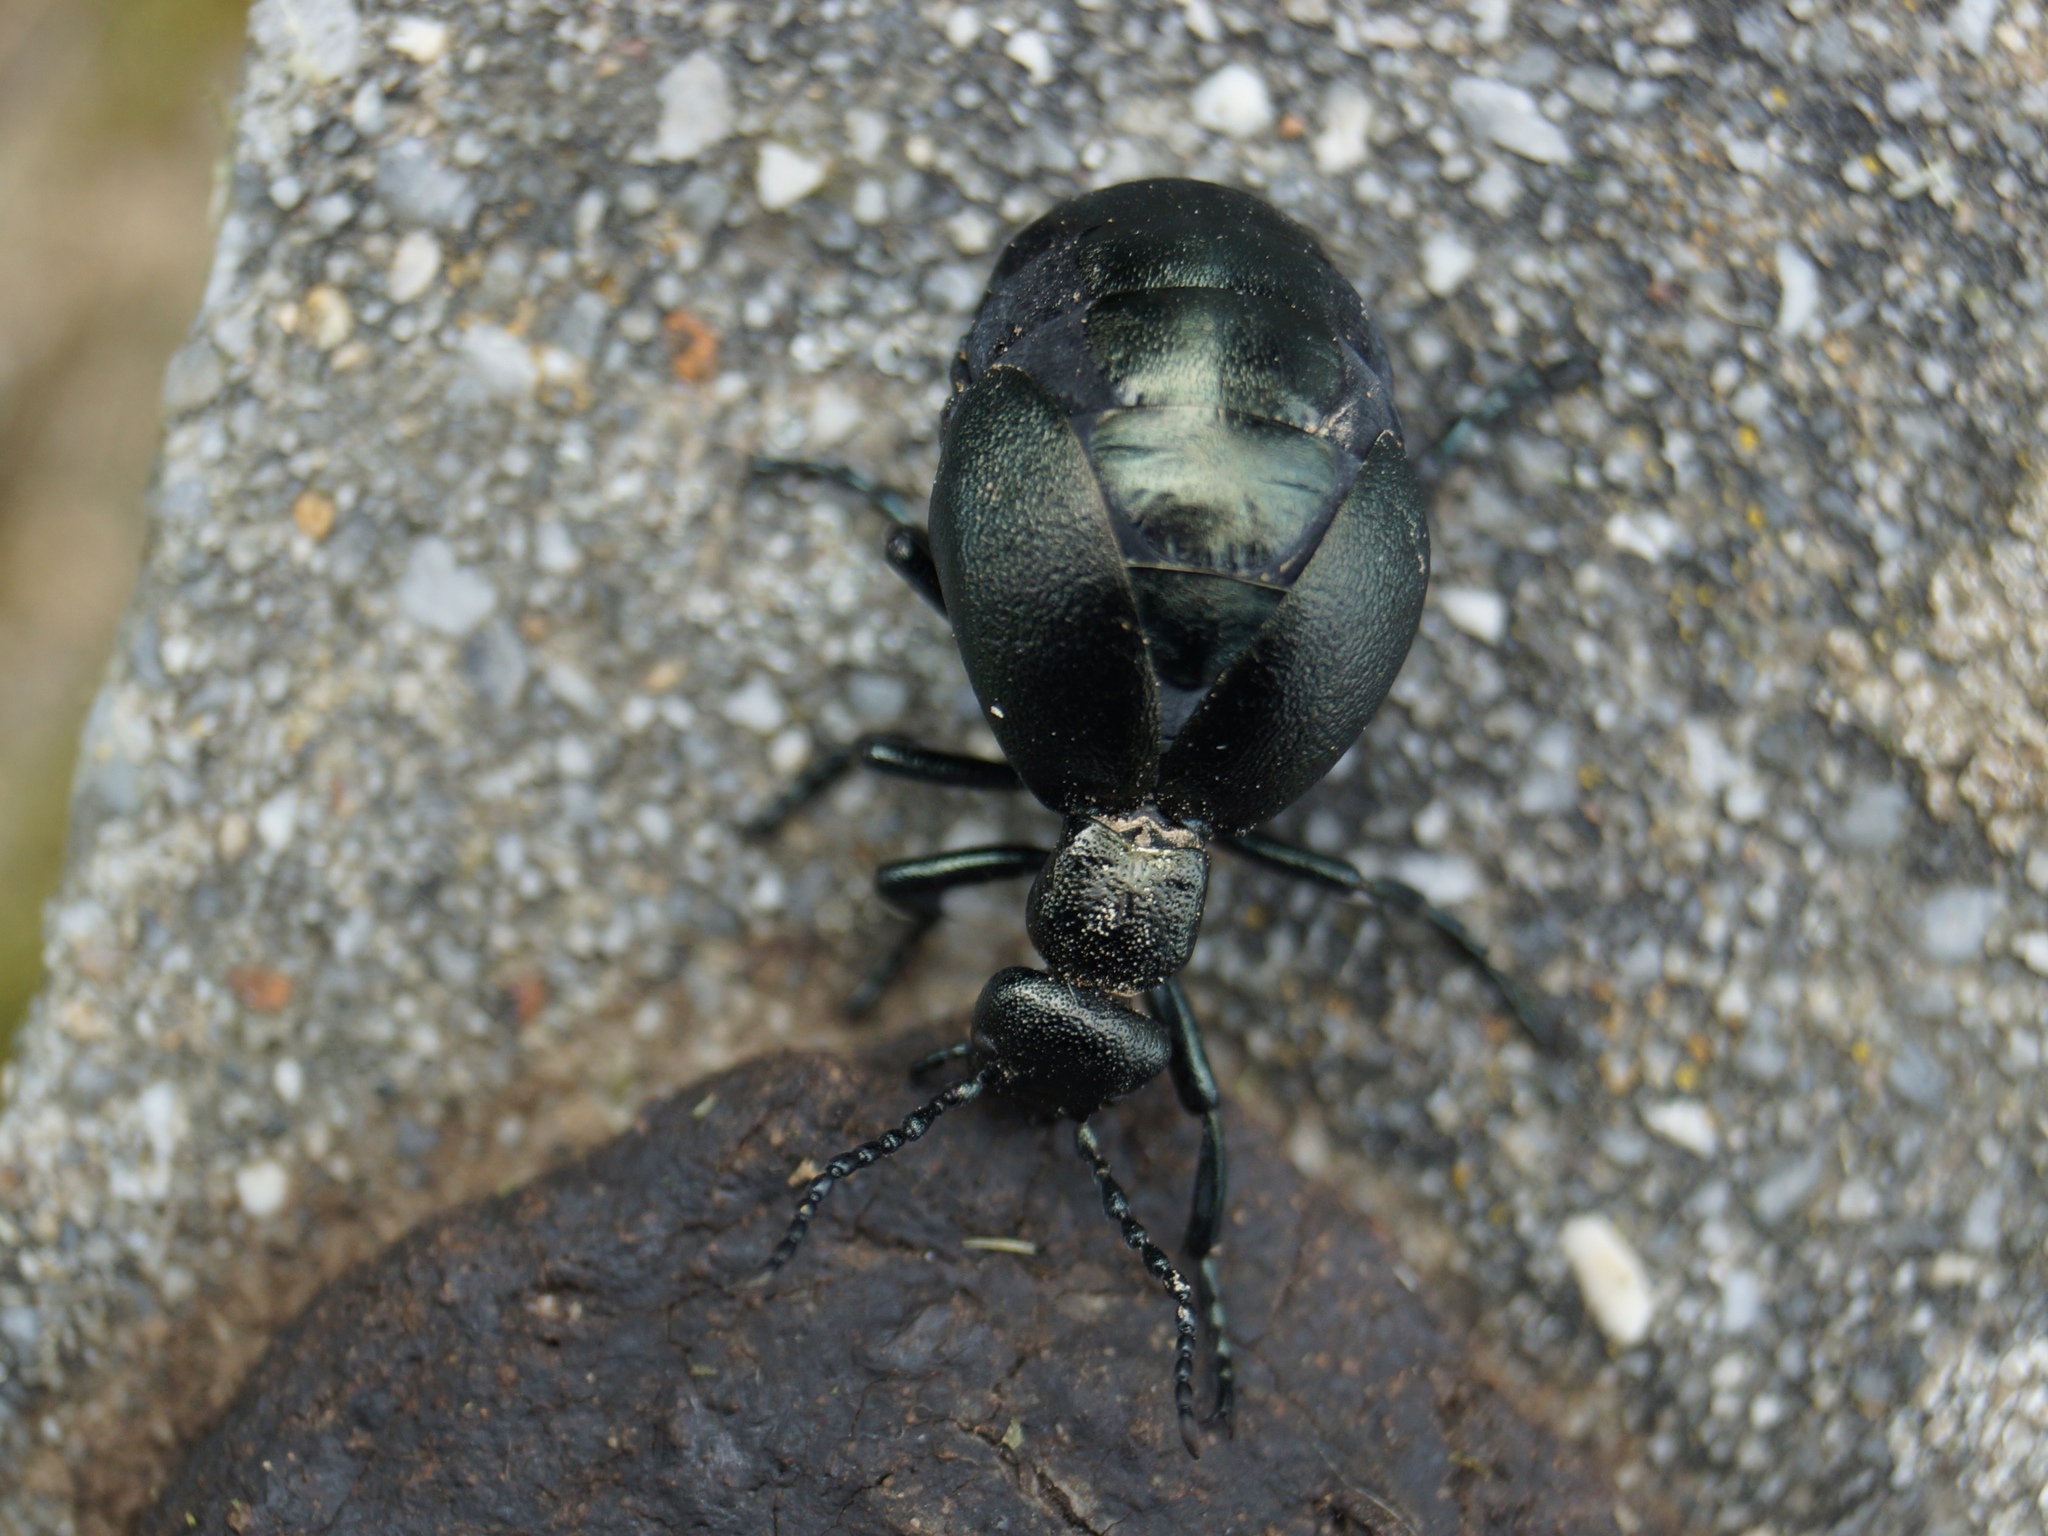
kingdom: Animalia
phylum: Arthropoda
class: Insecta
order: Coleoptera
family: Meloidae
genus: Meloe
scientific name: Meloe violaceus
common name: Violet oil-beetle
